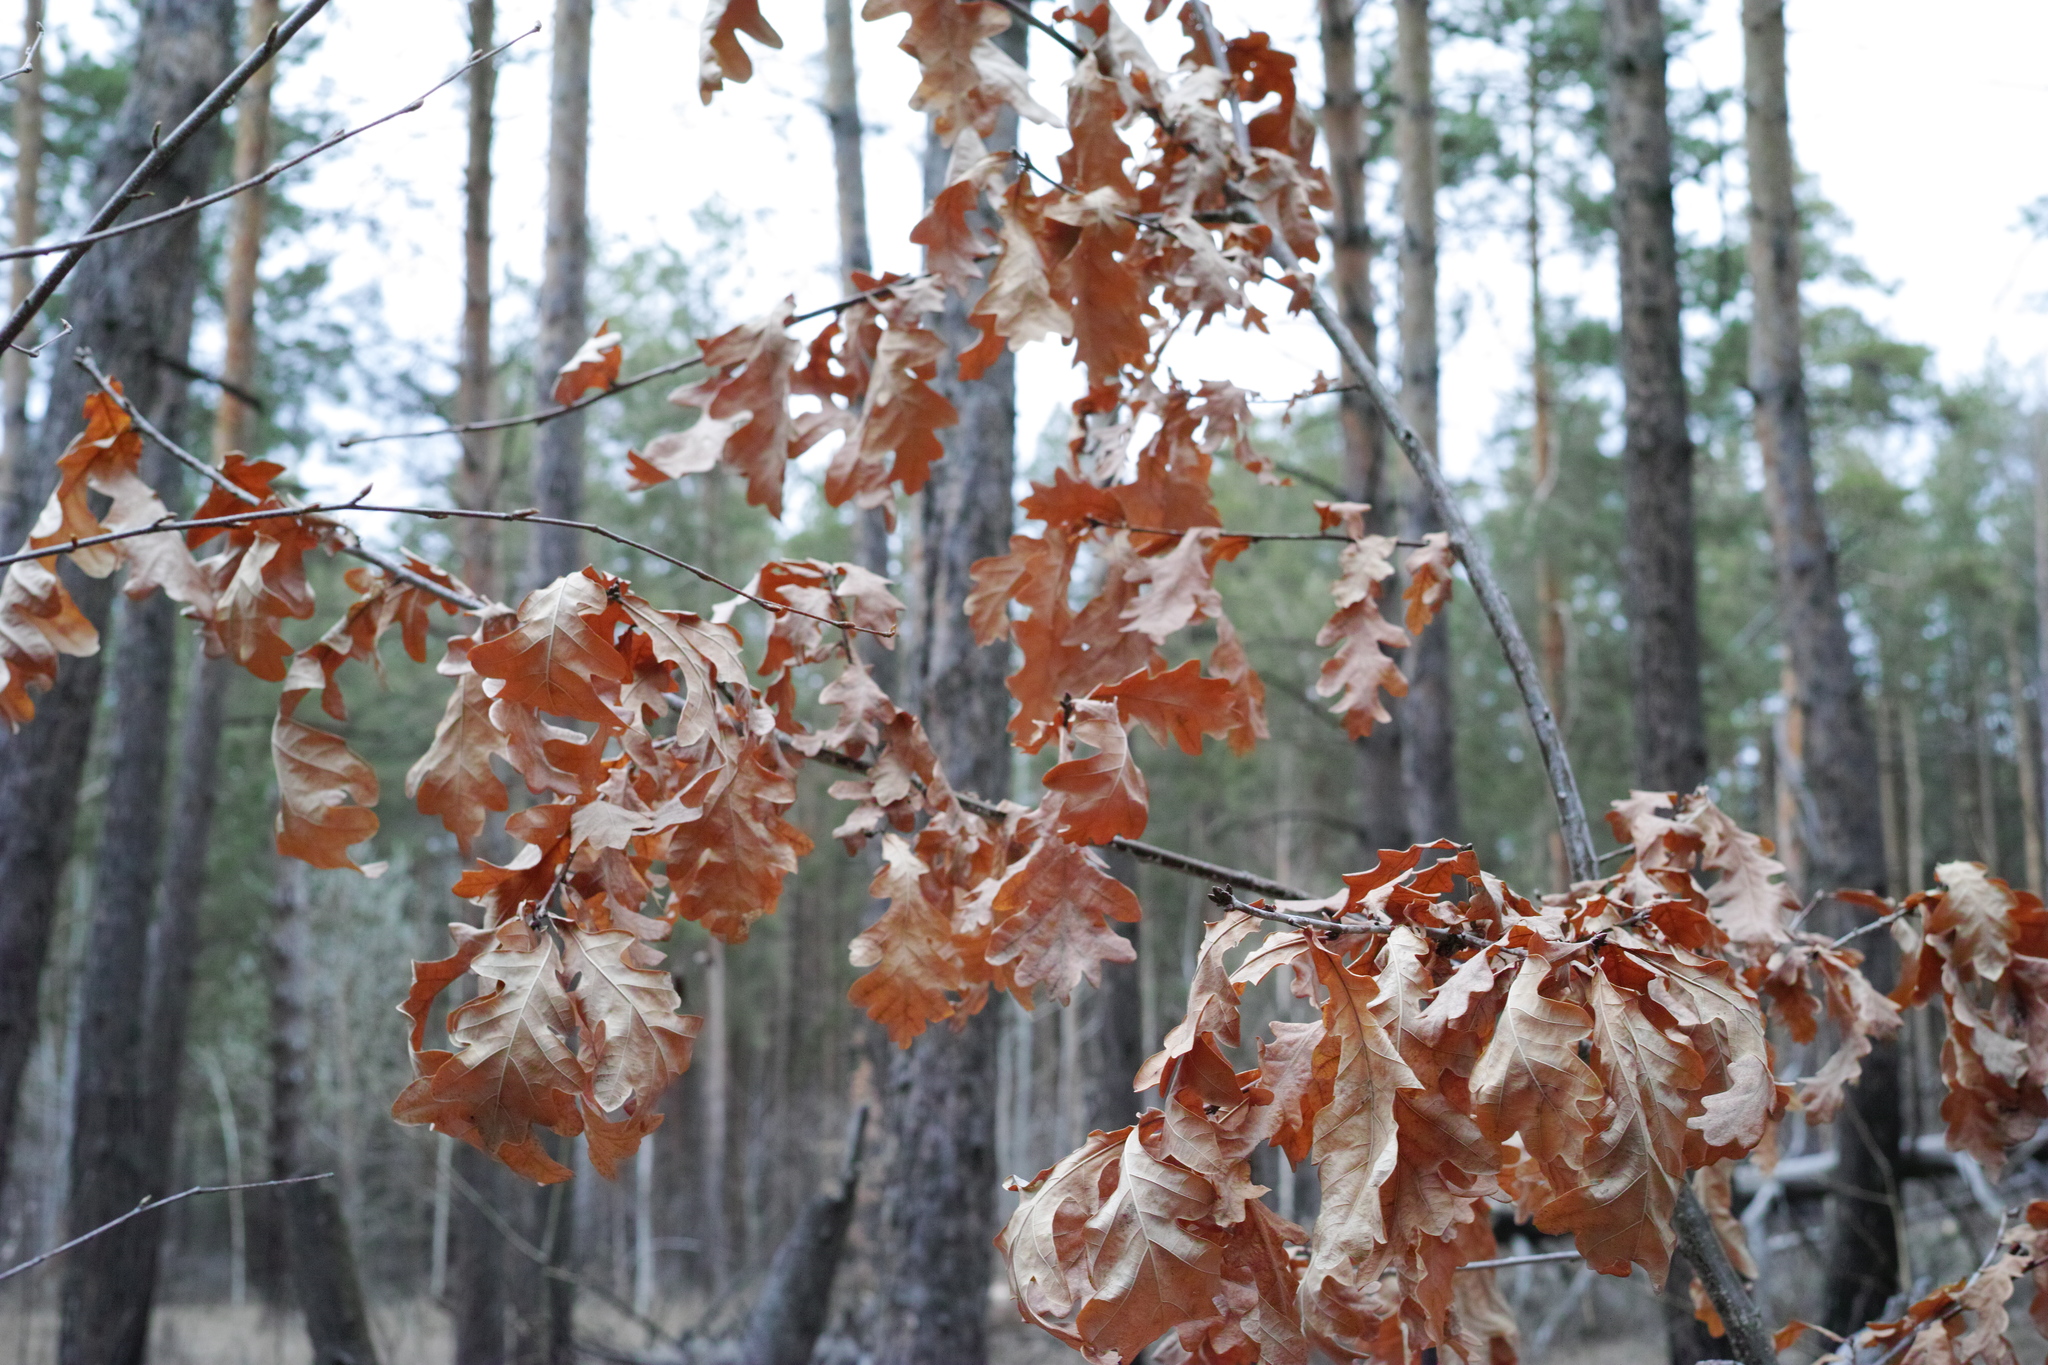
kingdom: Plantae
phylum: Tracheophyta
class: Magnoliopsida
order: Fagales
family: Fagaceae
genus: Quercus
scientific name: Quercus robur
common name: Pedunculate oak
